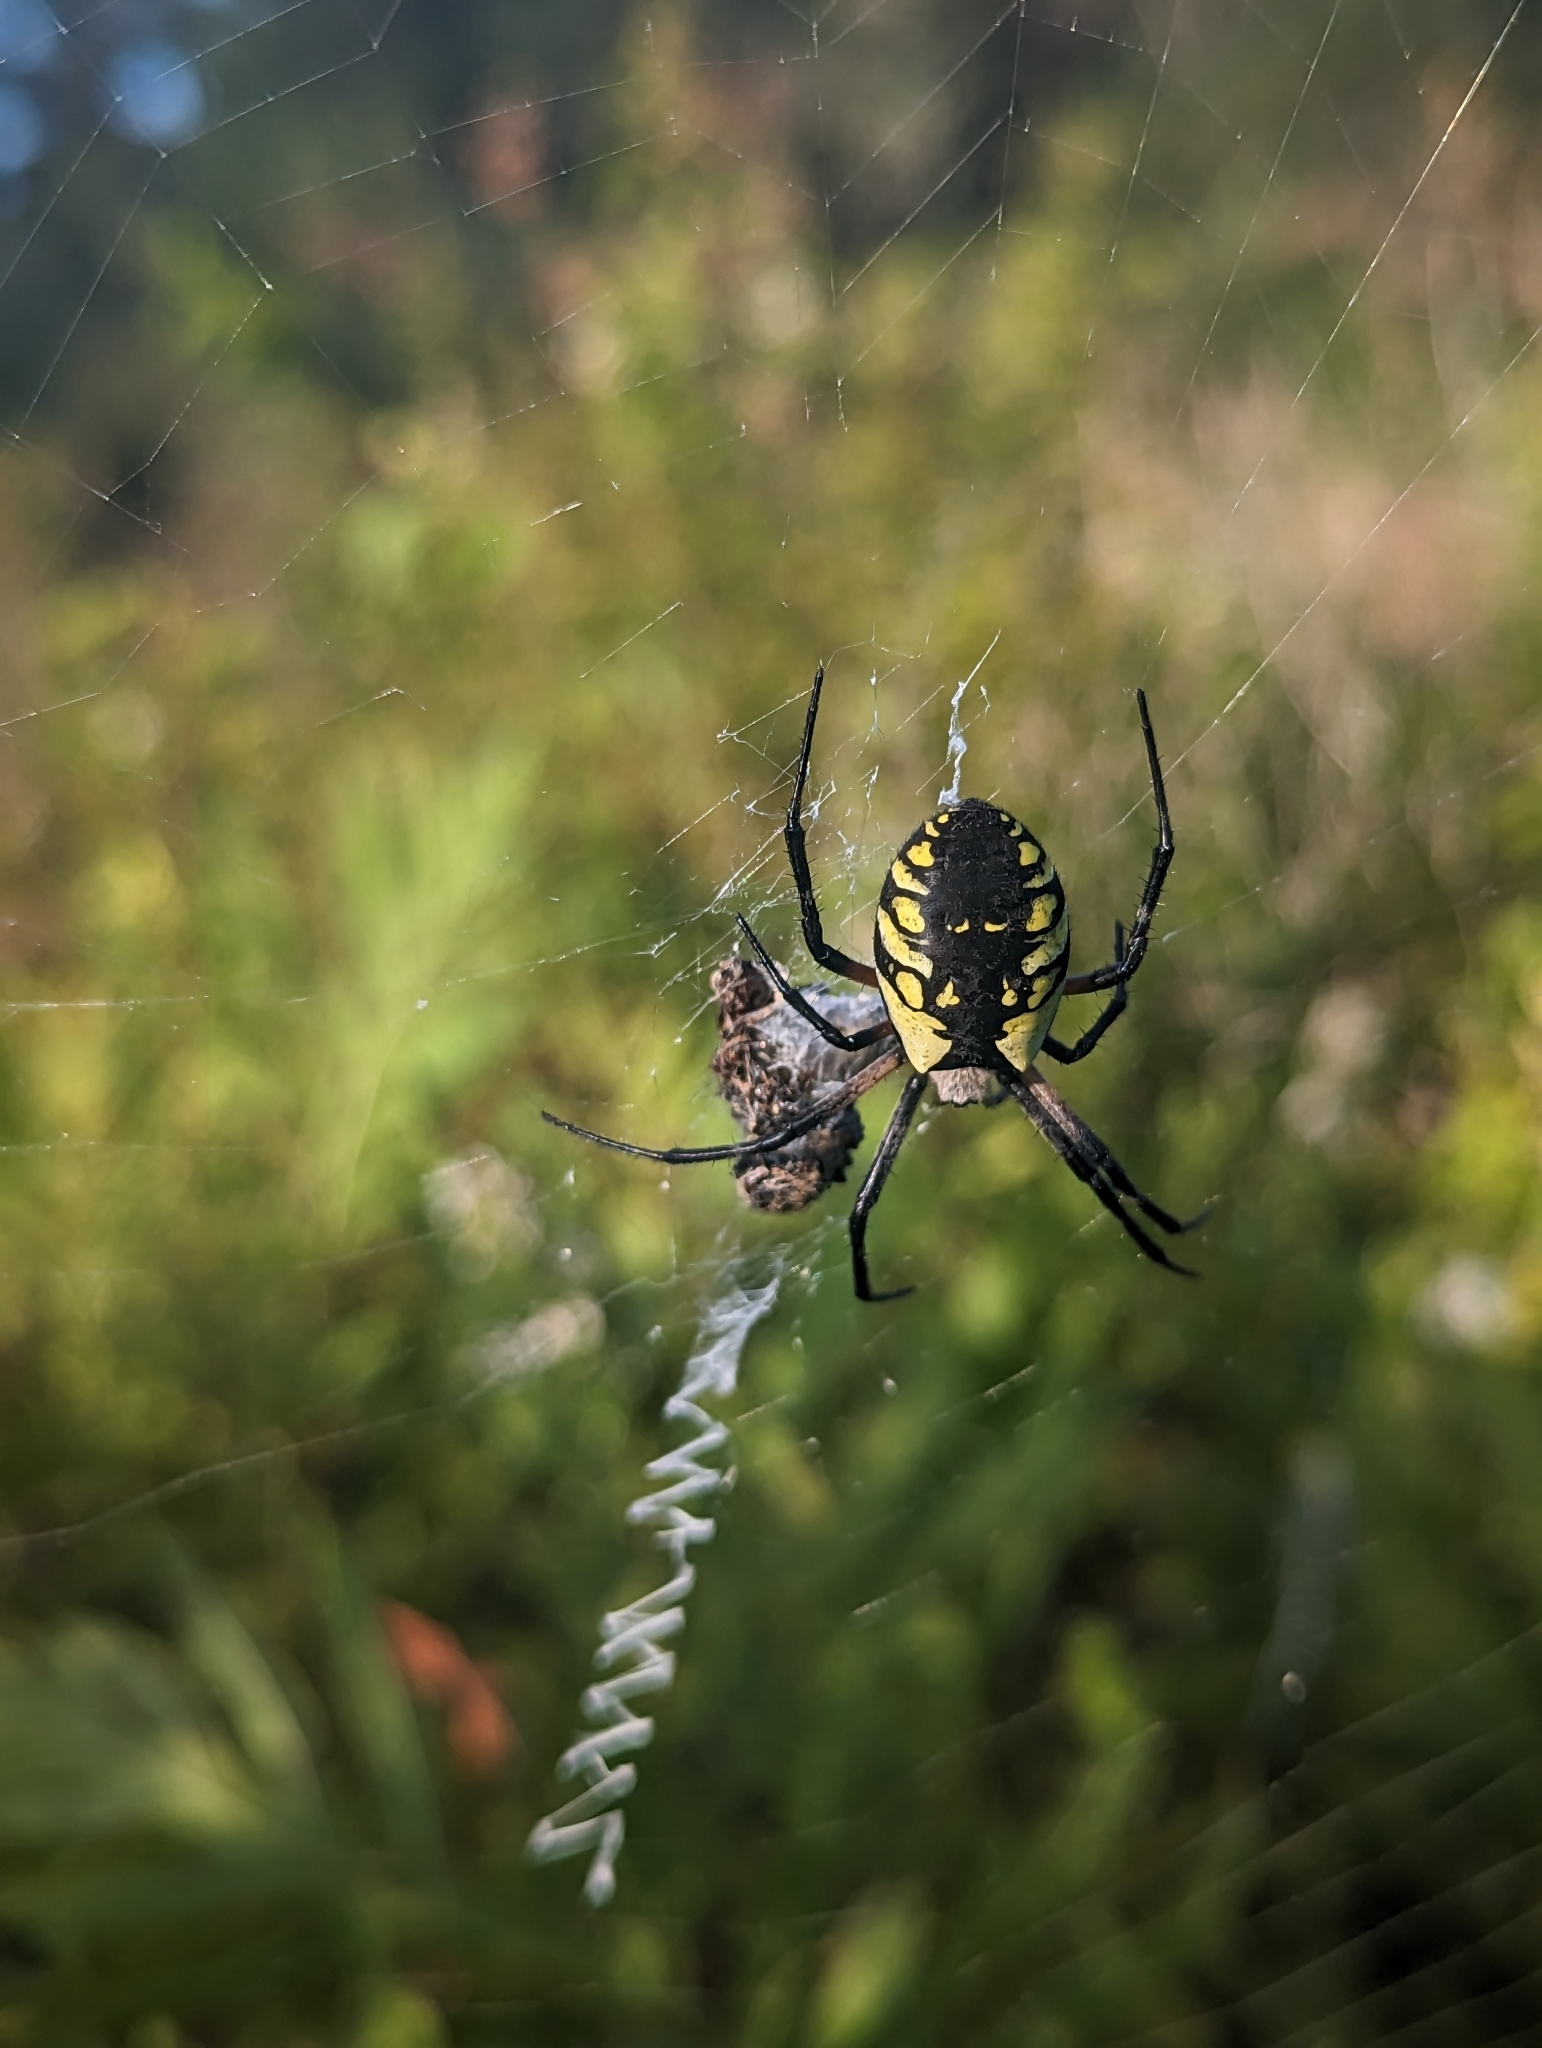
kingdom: Animalia
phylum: Arthropoda
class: Arachnida
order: Araneae
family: Araneidae
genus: Argiope
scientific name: Argiope aurantia
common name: Orb weavers
